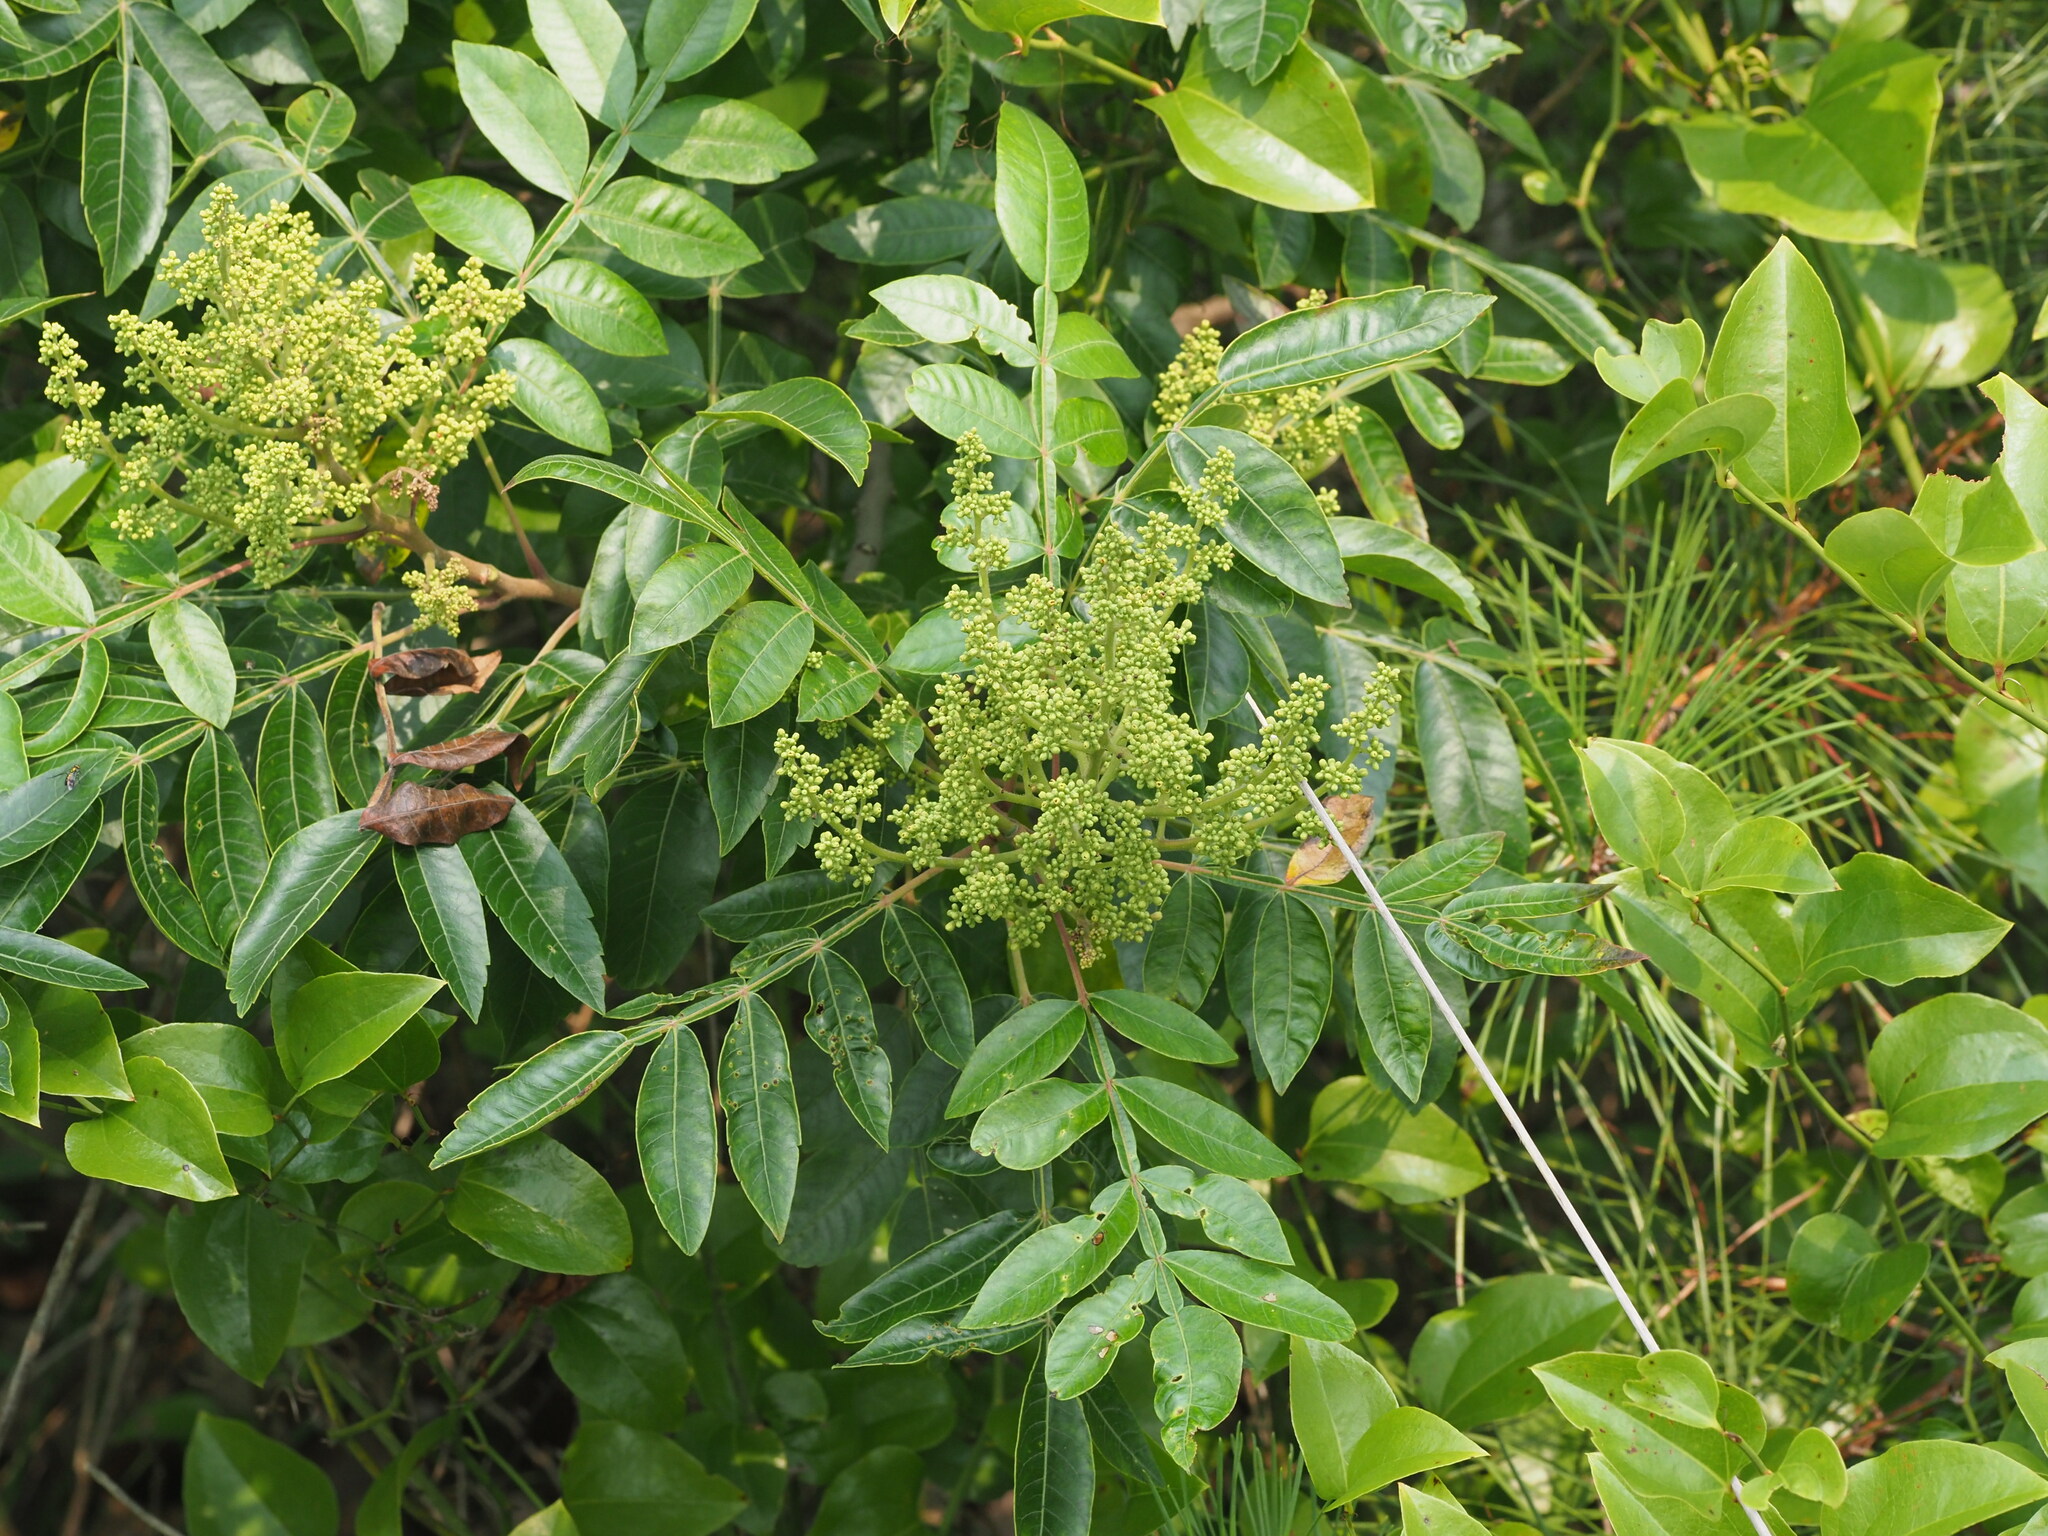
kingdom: Plantae
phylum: Tracheophyta
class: Magnoliopsida
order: Sapindales
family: Anacardiaceae
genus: Rhus
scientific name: Rhus copallina
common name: Shining sumac
